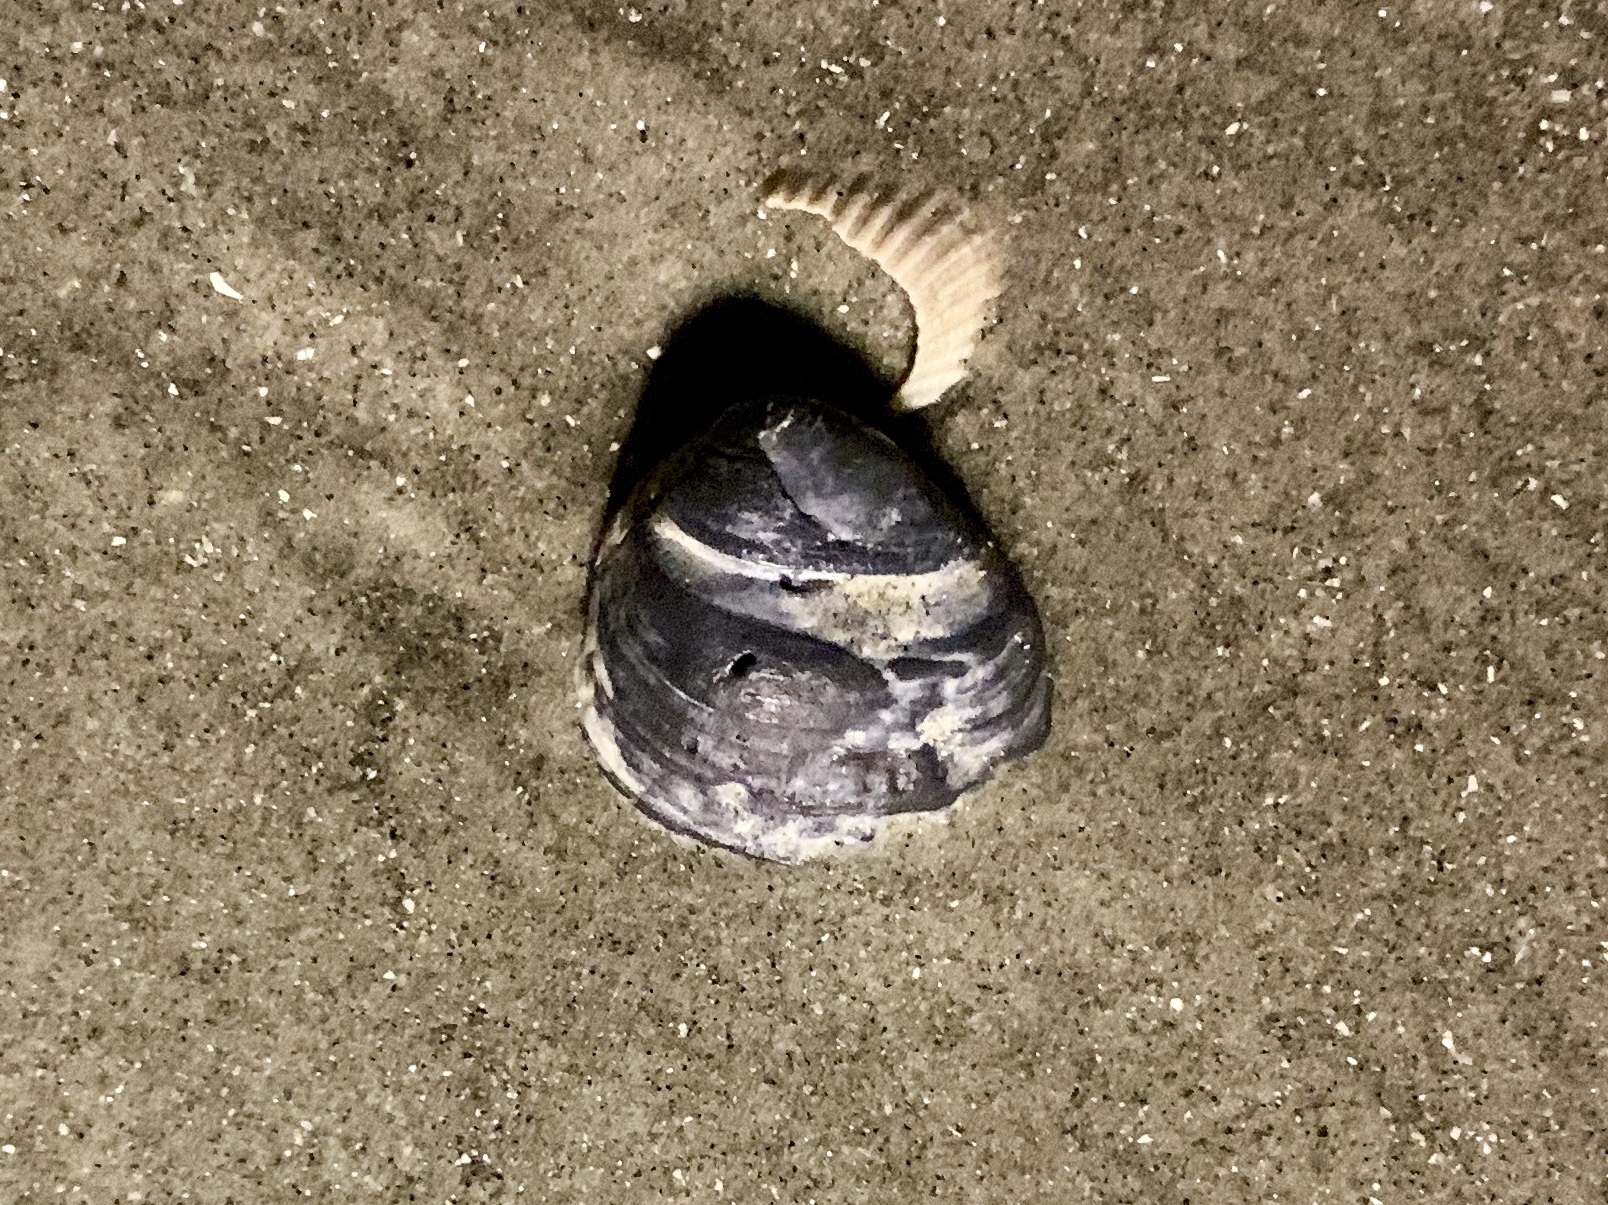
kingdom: Animalia
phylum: Mollusca
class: Bivalvia
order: Venerida
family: Mactridae
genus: Rangia
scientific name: Rangia cuneata
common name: Atlantic rangia
